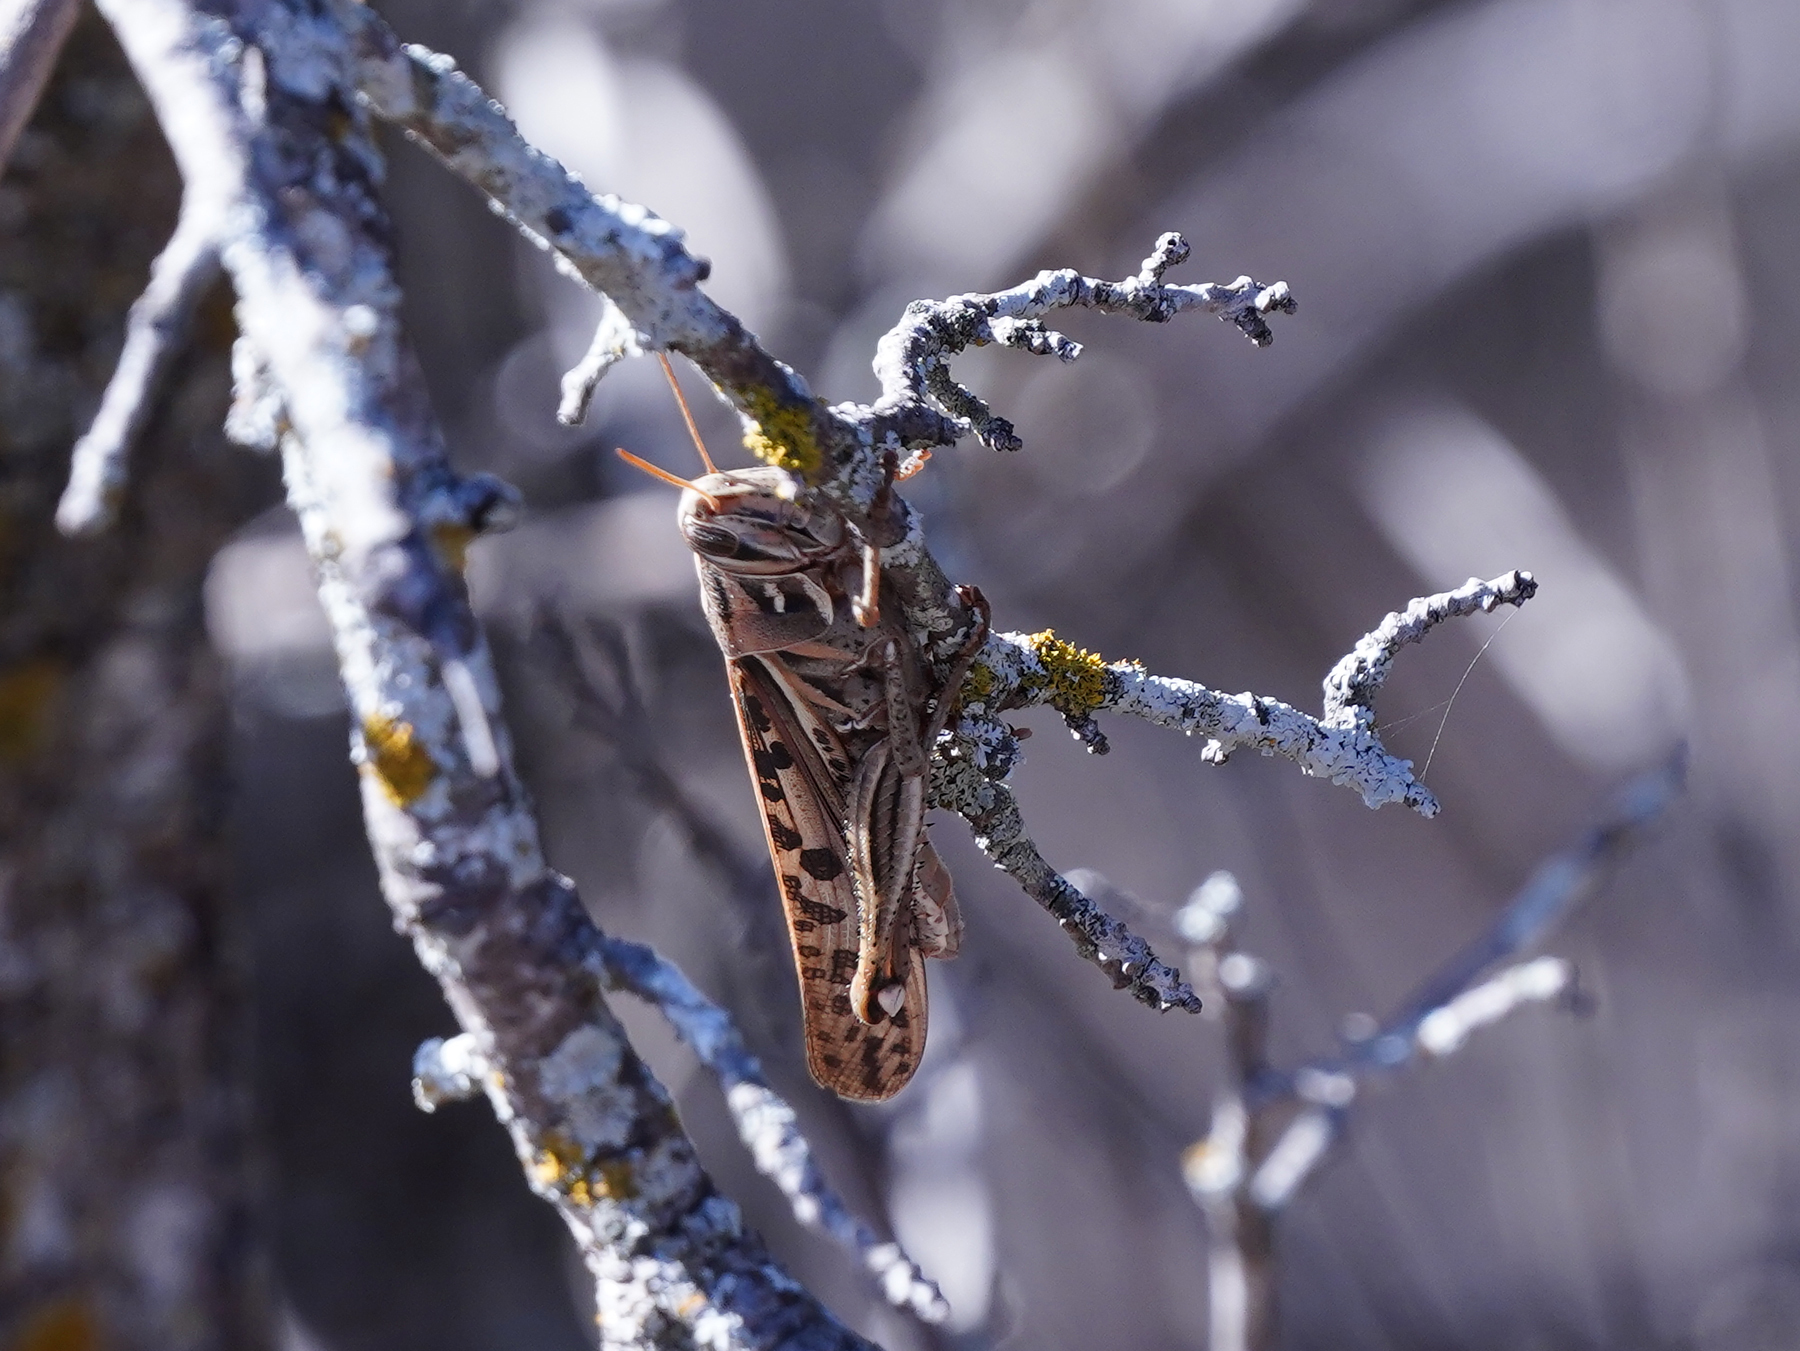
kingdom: Animalia
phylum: Arthropoda
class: Insecta
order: Orthoptera
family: Acrididae
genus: Schistocerca
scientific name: Schistocerca americana
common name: American bird locust
